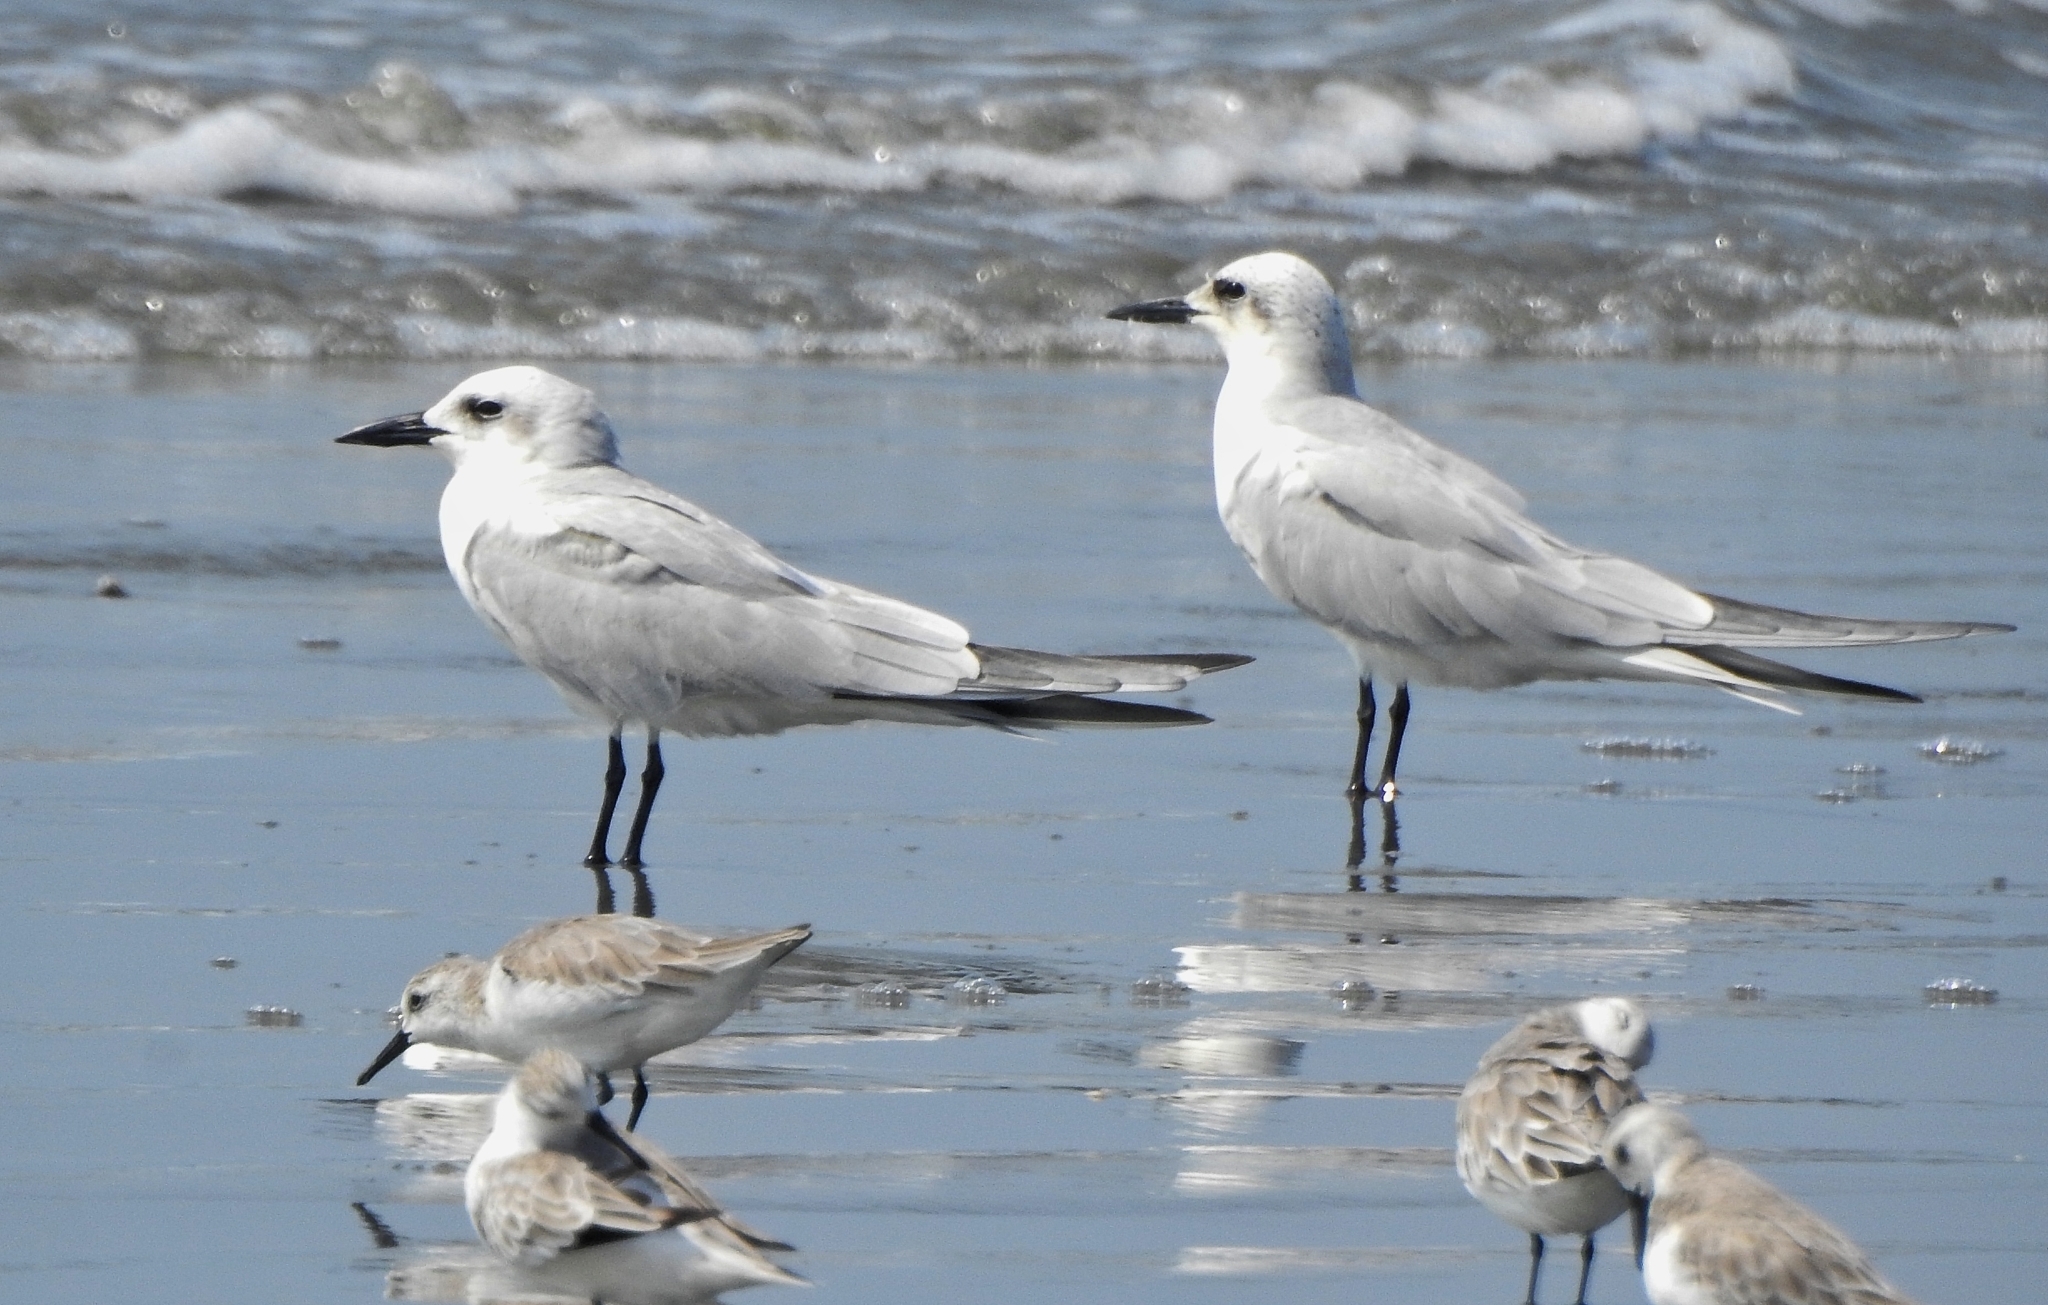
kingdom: Animalia
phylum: Chordata
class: Aves
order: Charadriiformes
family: Laridae
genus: Gelochelidon
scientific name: Gelochelidon nilotica
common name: Gull-billed tern
